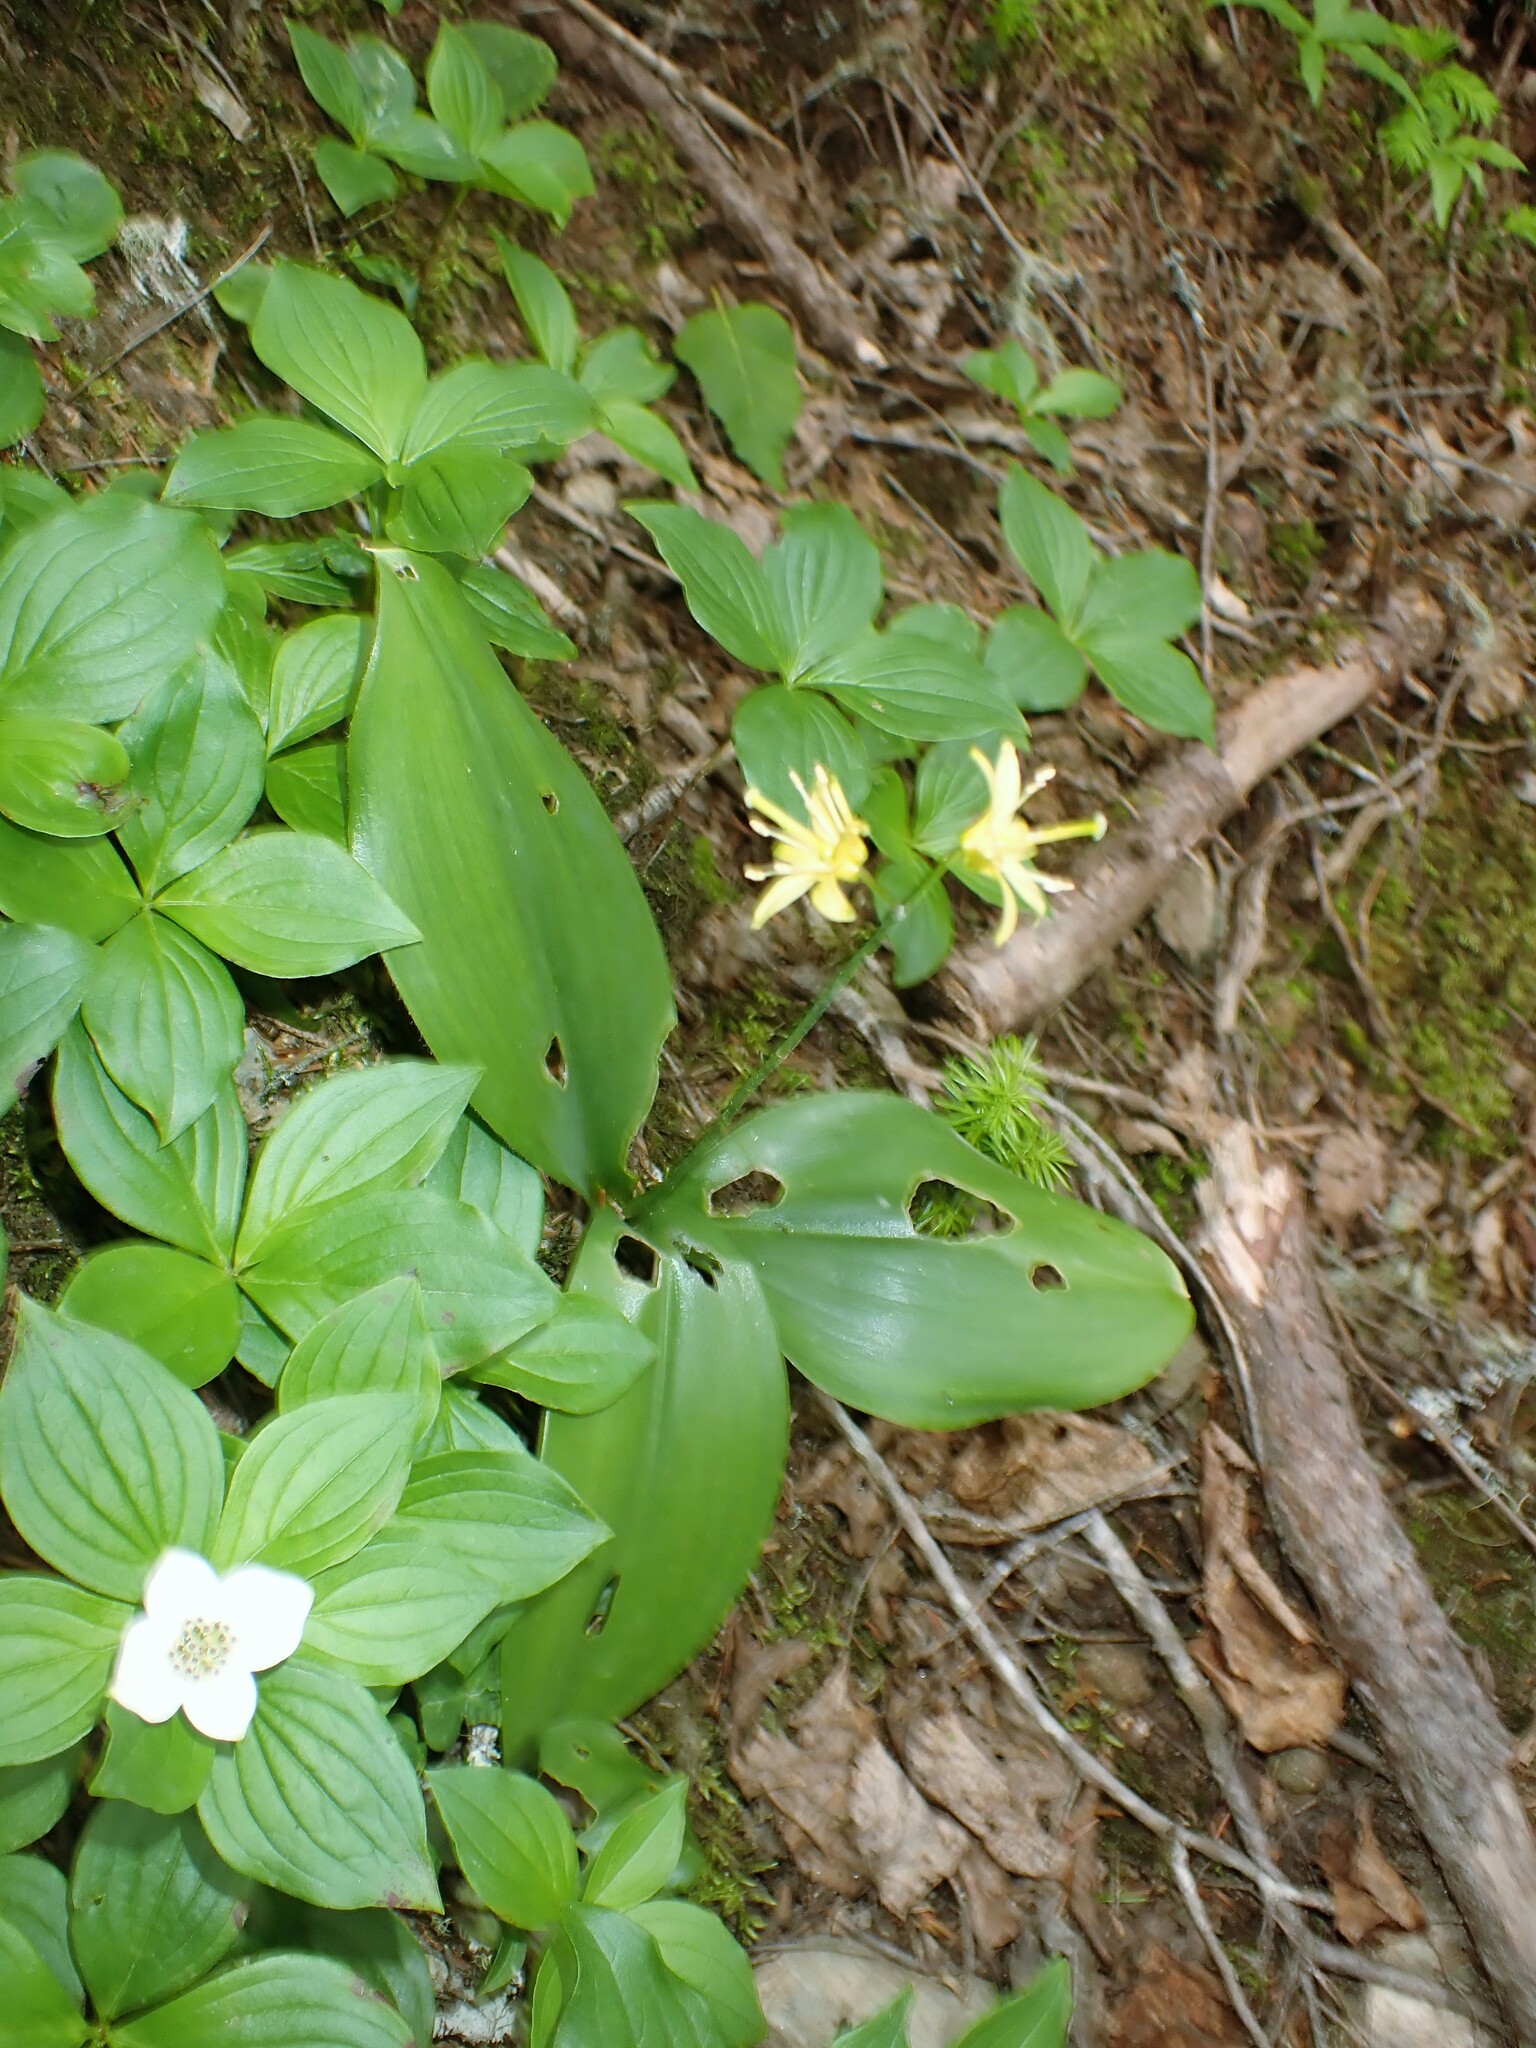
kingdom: Plantae
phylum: Tracheophyta
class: Liliopsida
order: Liliales
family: Liliaceae
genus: Clintonia
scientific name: Clintonia borealis
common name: Yellow clintonia
